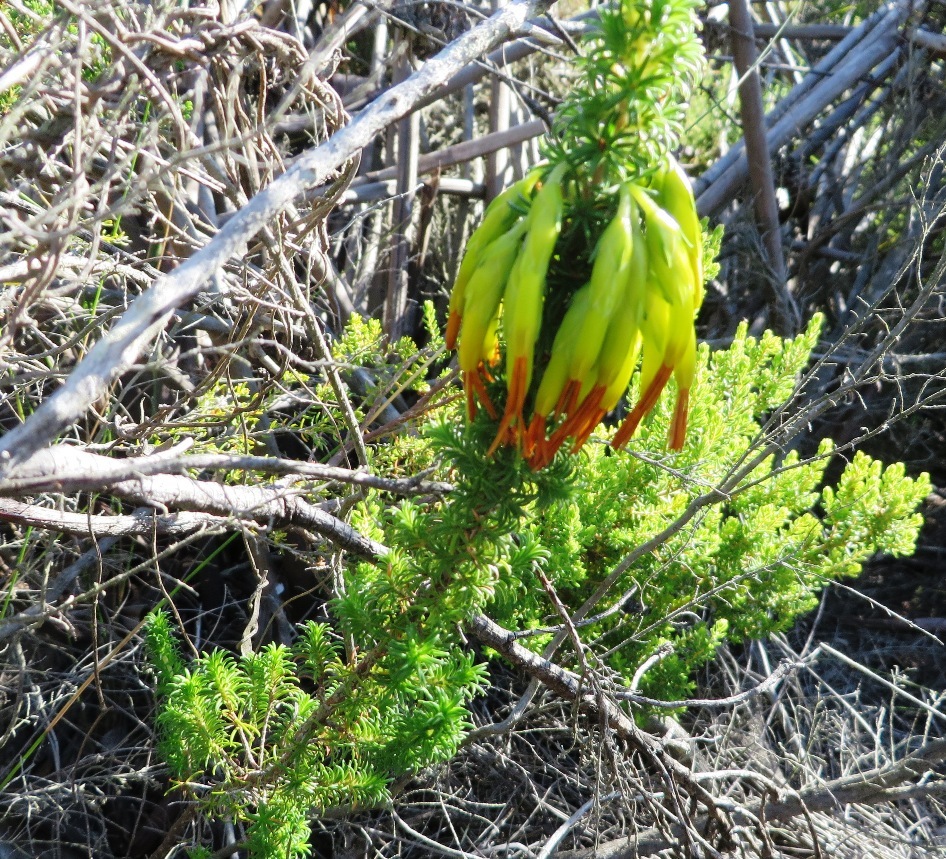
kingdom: Plantae
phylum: Tracheophyta
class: Magnoliopsida
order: Ericales
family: Ericaceae
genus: Erica
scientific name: Erica coccinea
